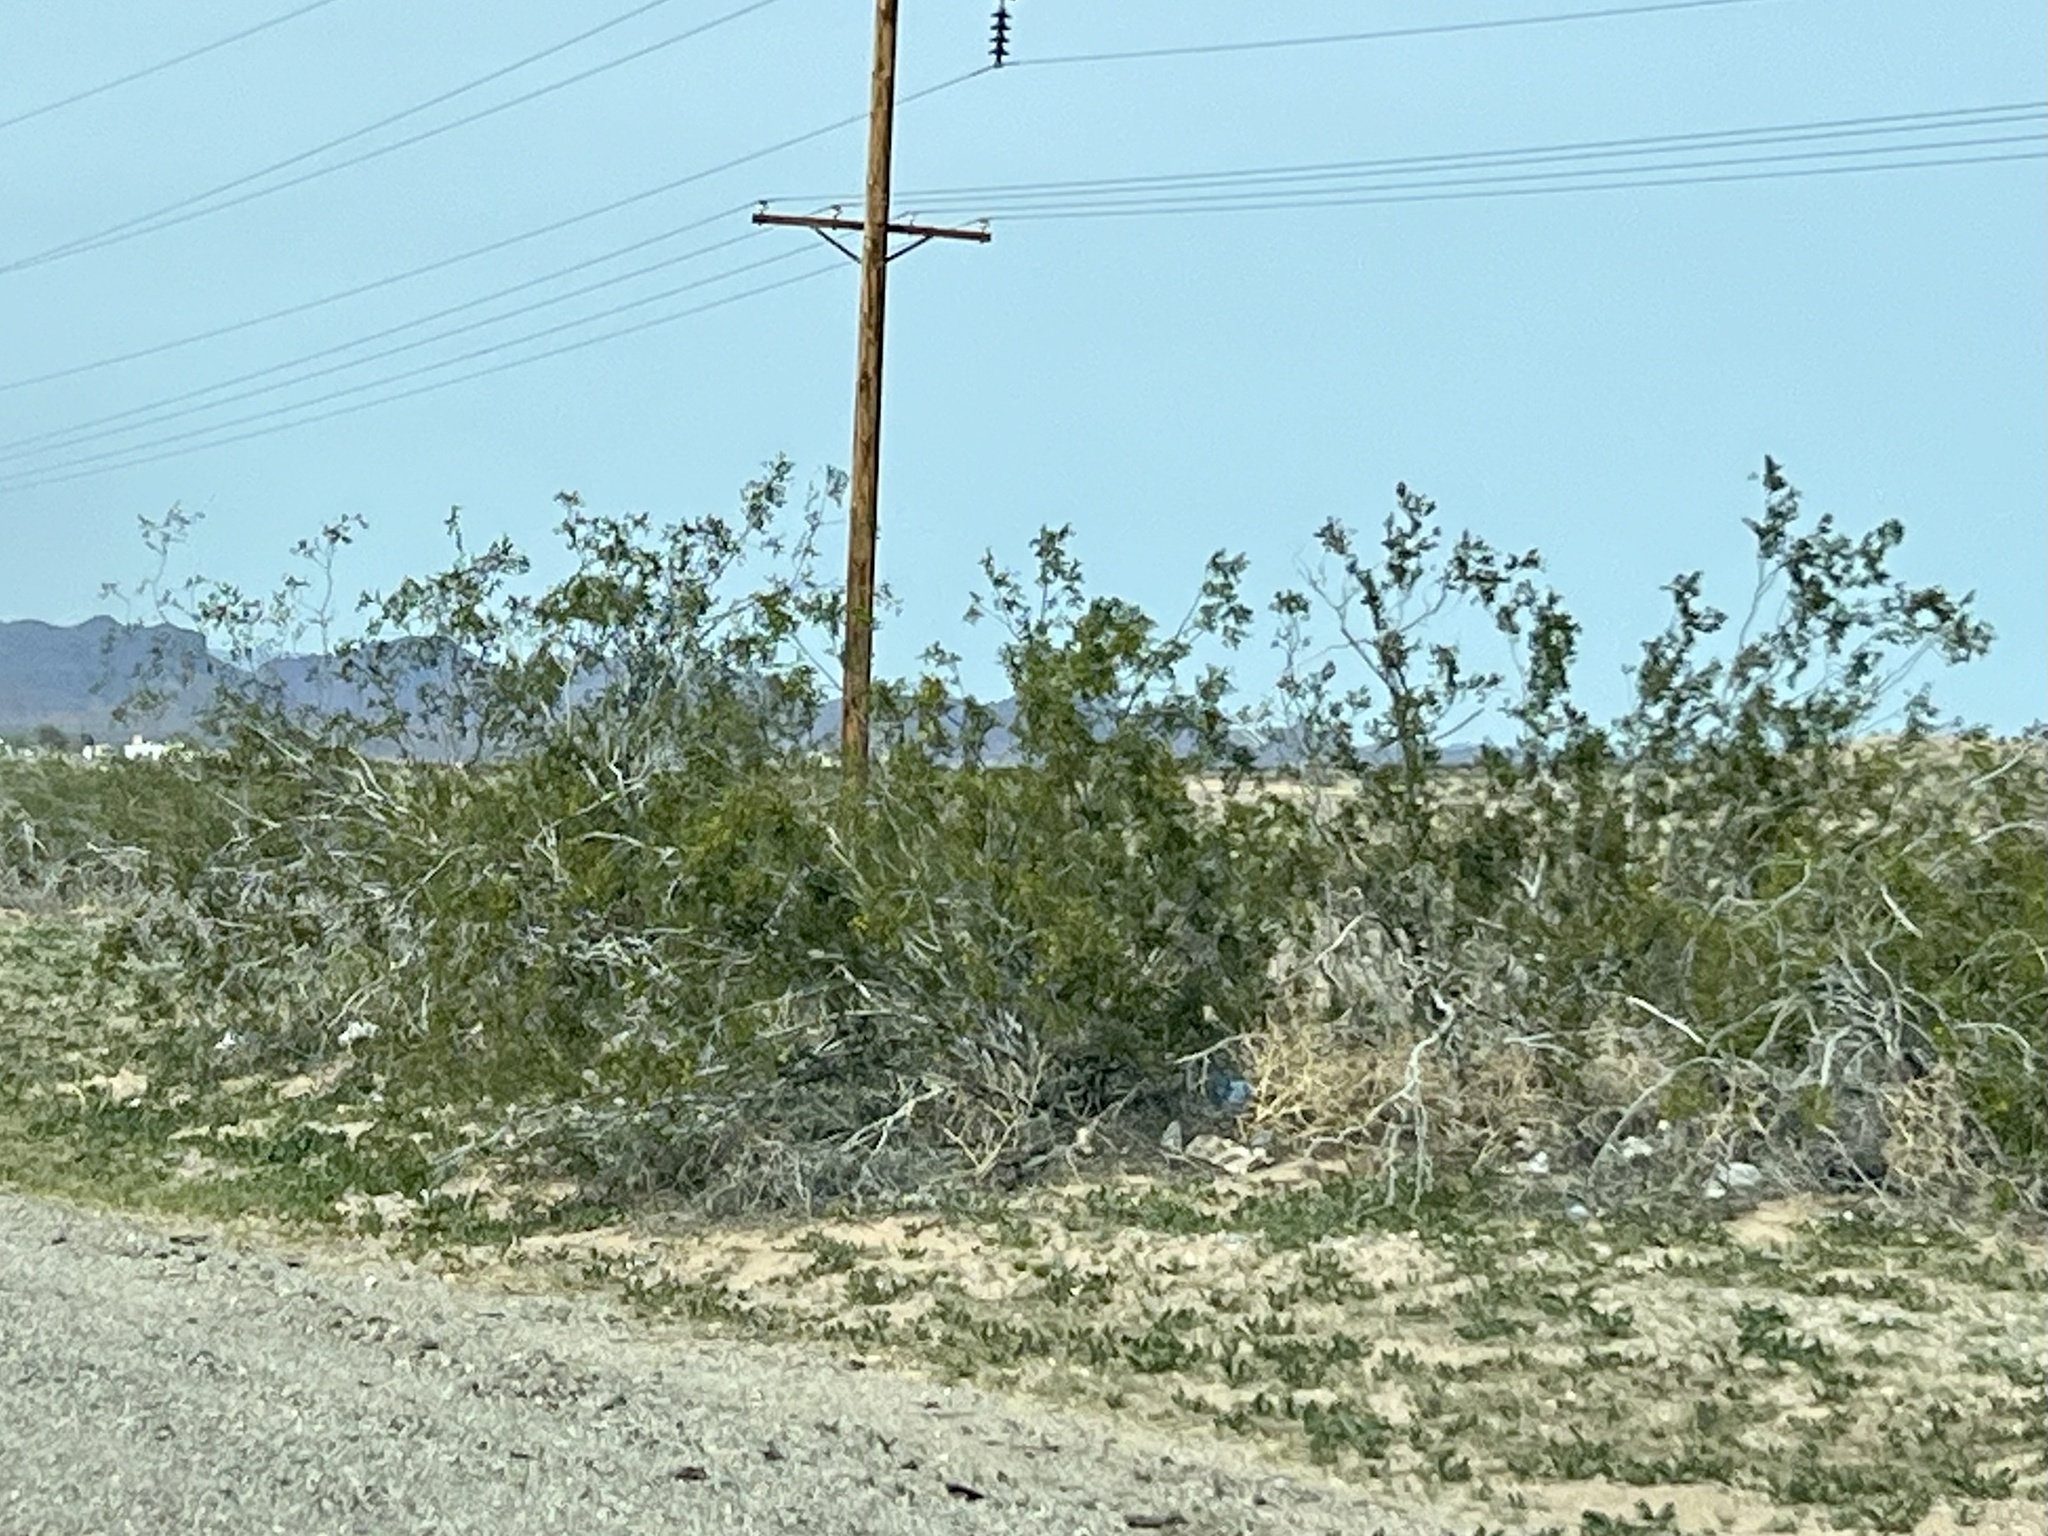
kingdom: Plantae
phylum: Tracheophyta
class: Magnoliopsida
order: Zygophyllales
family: Zygophyllaceae
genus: Larrea
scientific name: Larrea tridentata
